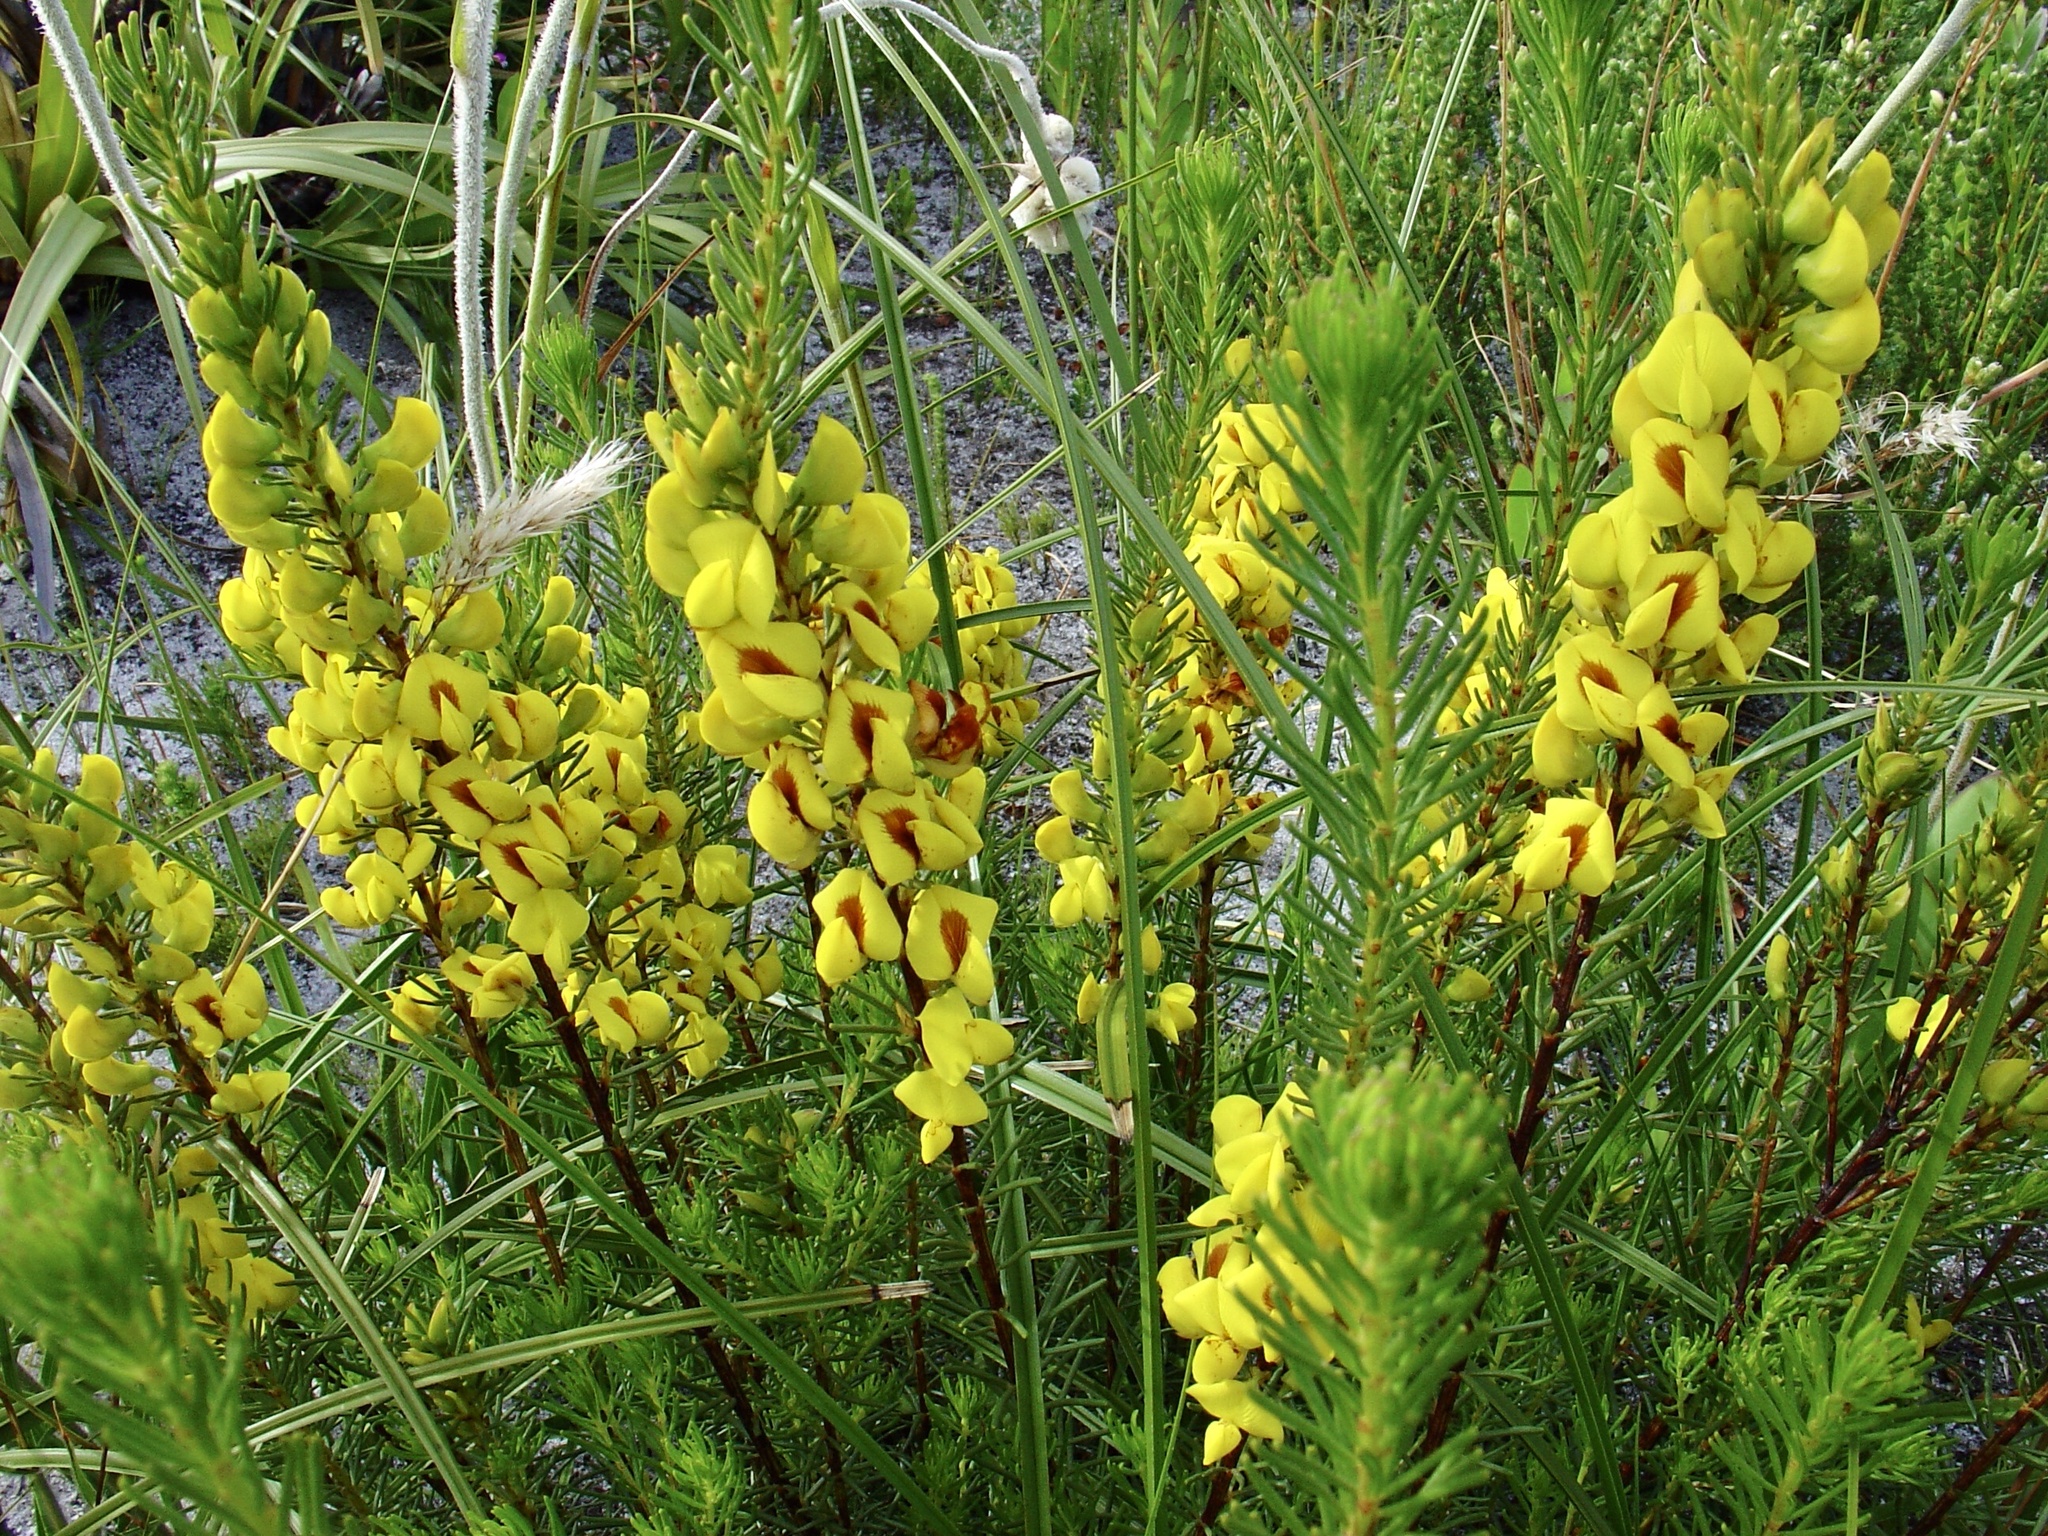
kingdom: Plantae
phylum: Tracheophyta
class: Magnoliopsida
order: Fabales
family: Fabaceae
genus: Cyclopia
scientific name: Cyclopia genistoides
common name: Honeybush tea
